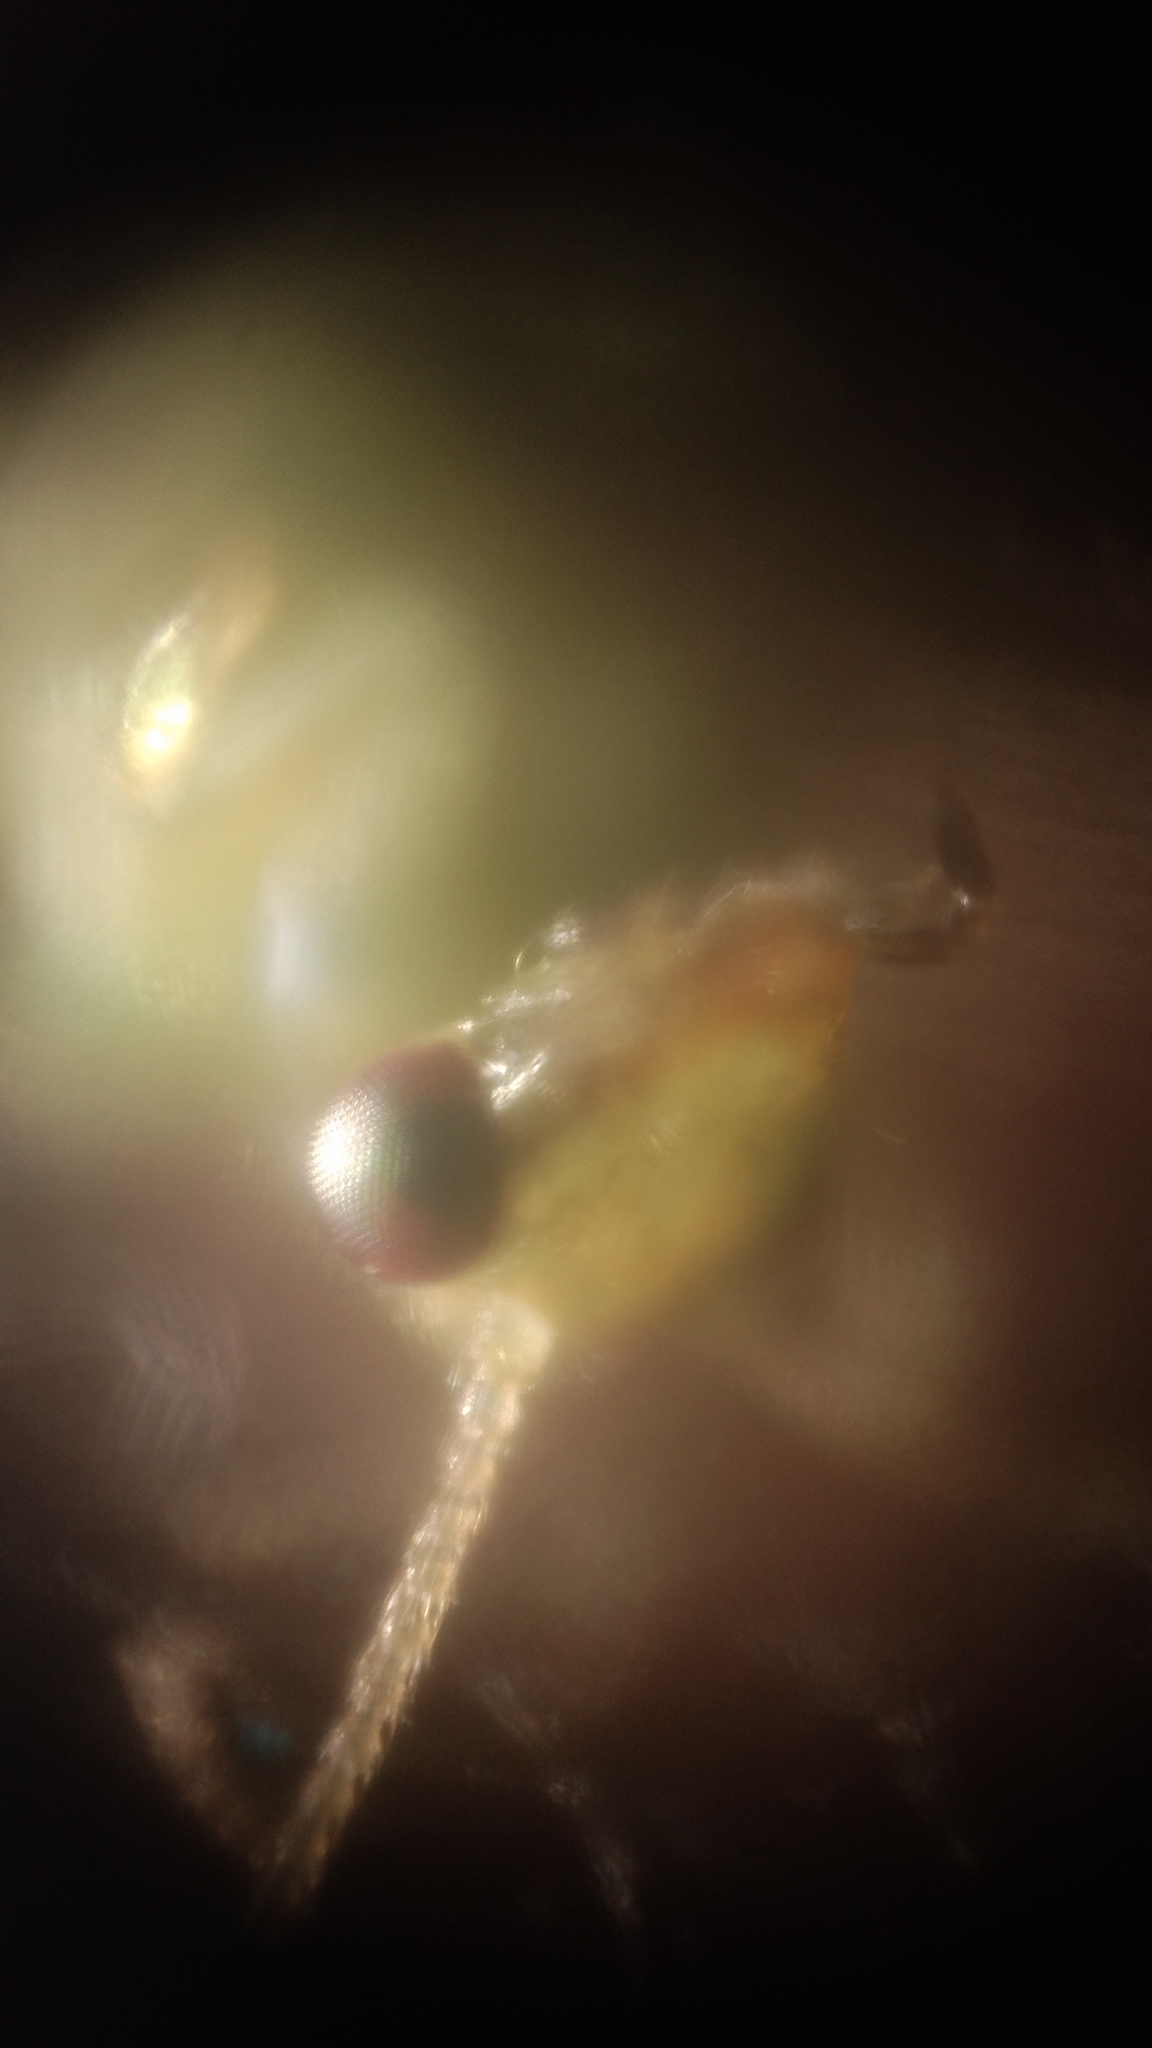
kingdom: Animalia
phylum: Arthropoda
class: Insecta
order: Neuroptera
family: Hemerobiidae
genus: Notiobiella
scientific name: Notiobiella viridinervis
